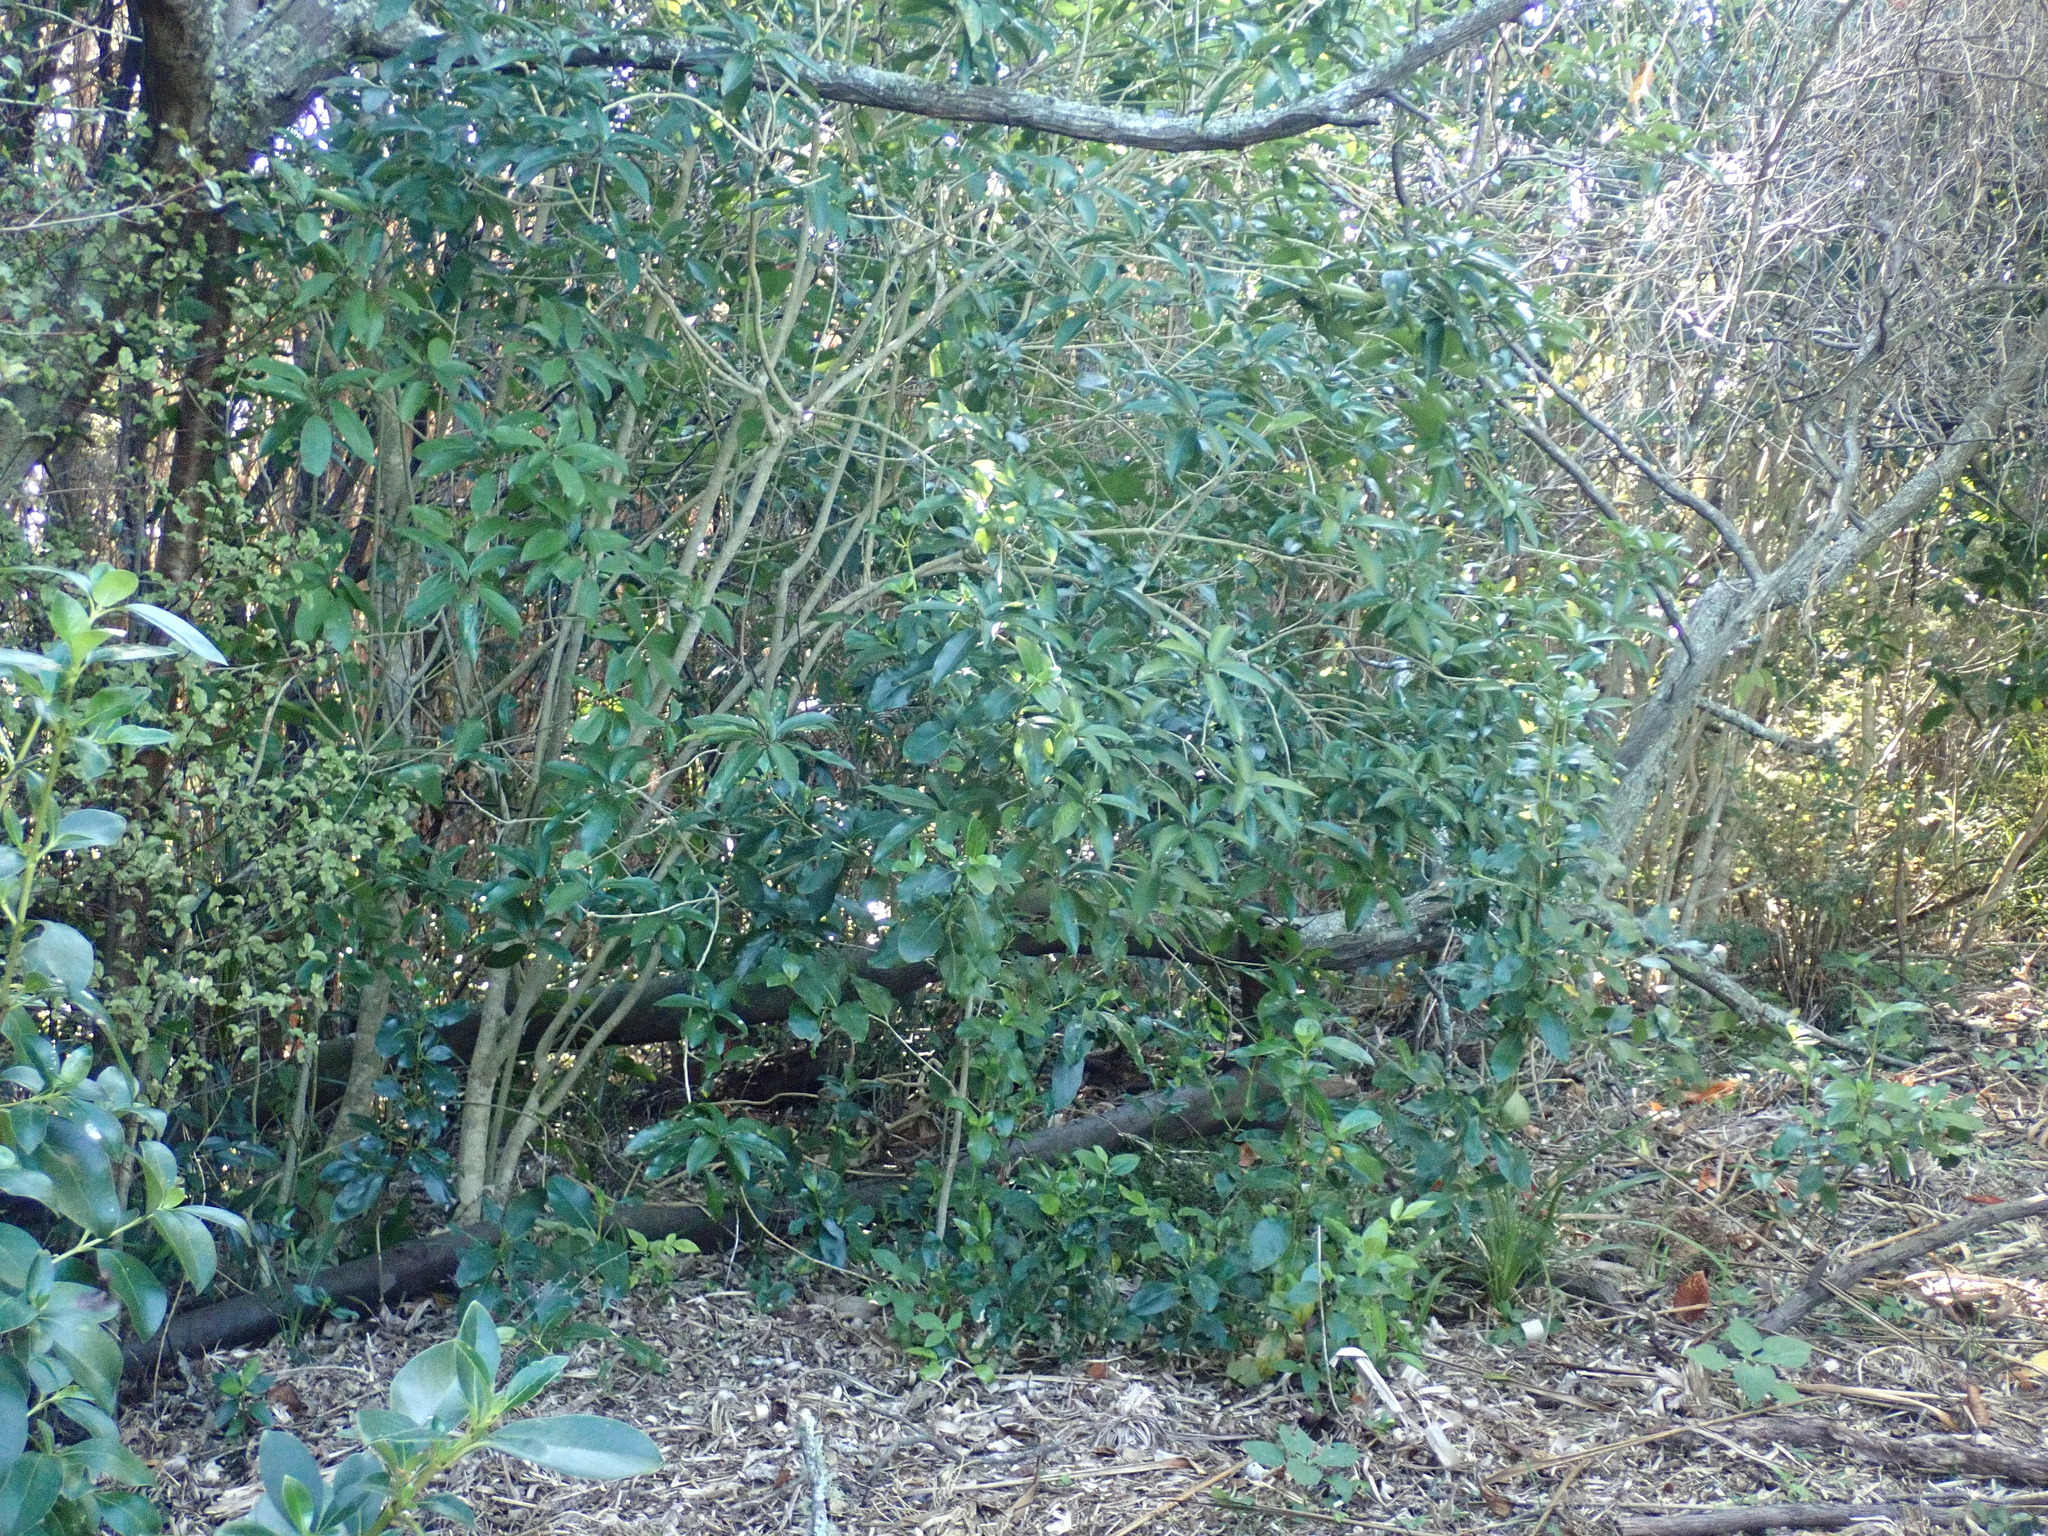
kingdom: Plantae
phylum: Tracheophyta
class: Magnoliopsida
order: Malpighiales
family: Violaceae
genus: Melicytus
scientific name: Melicytus ramiflorus
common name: Mahoe
